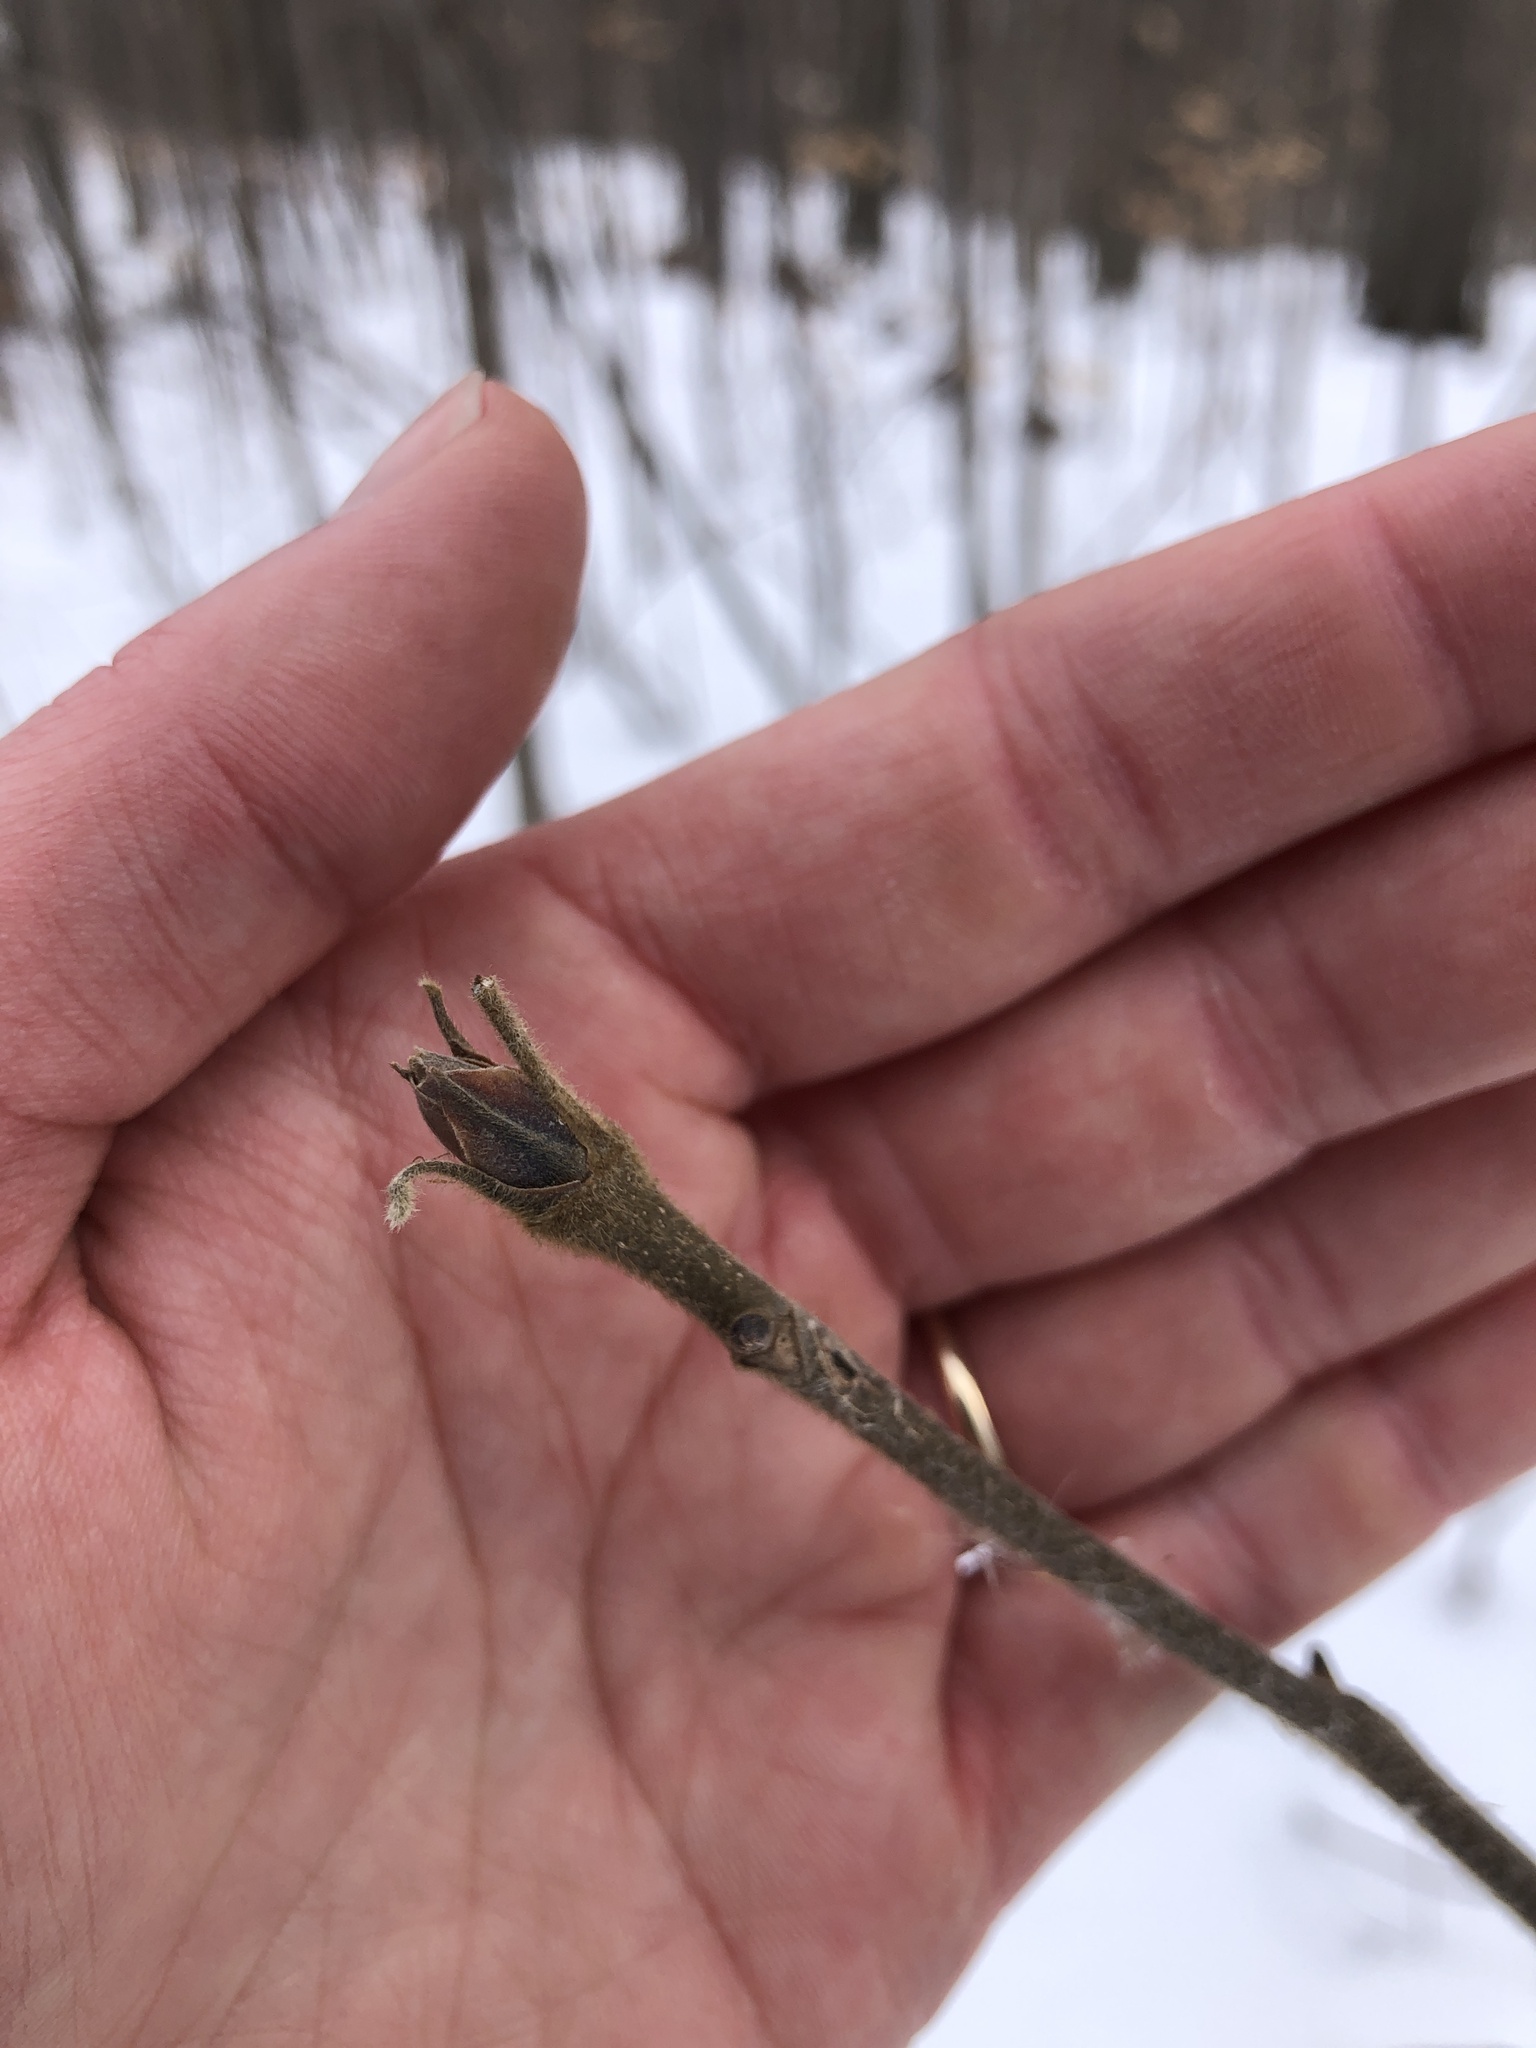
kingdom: Plantae
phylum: Tracheophyta
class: Magnoliopsida
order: Fagales
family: Juglandaceae
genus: Carya
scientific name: Carya ovata
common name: Shagbark hickory
